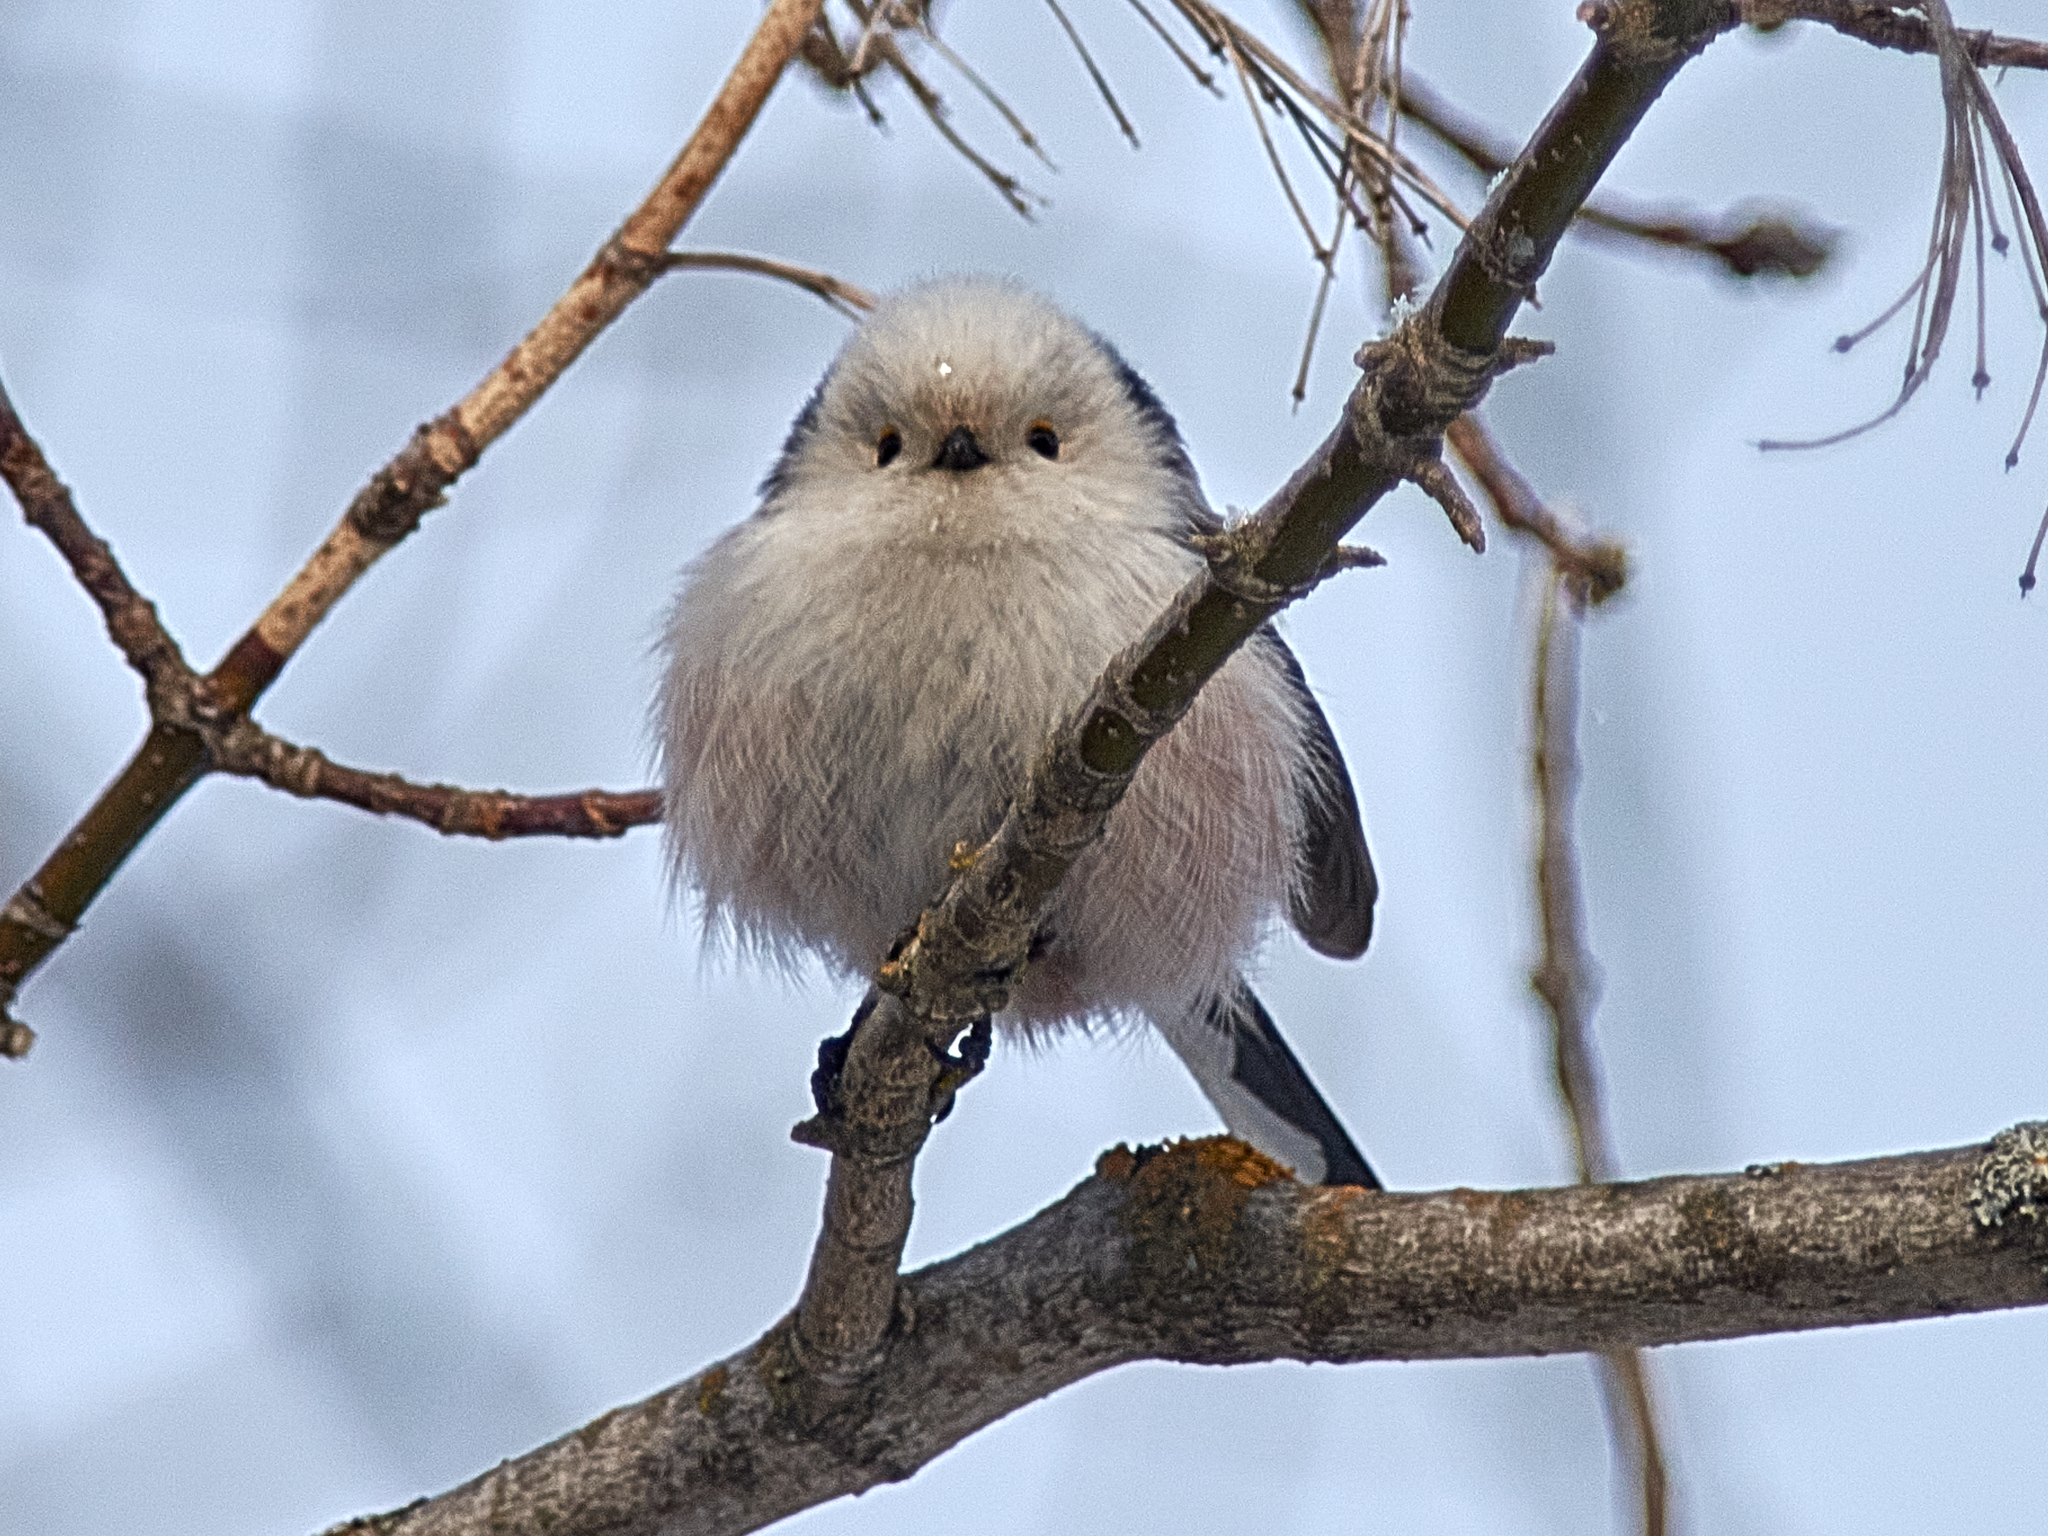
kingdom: Animalia
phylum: Chordata
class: Aves
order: Passeriformes
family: Aegithalidae
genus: Aegithalos
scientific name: Aegithalos caudatus
